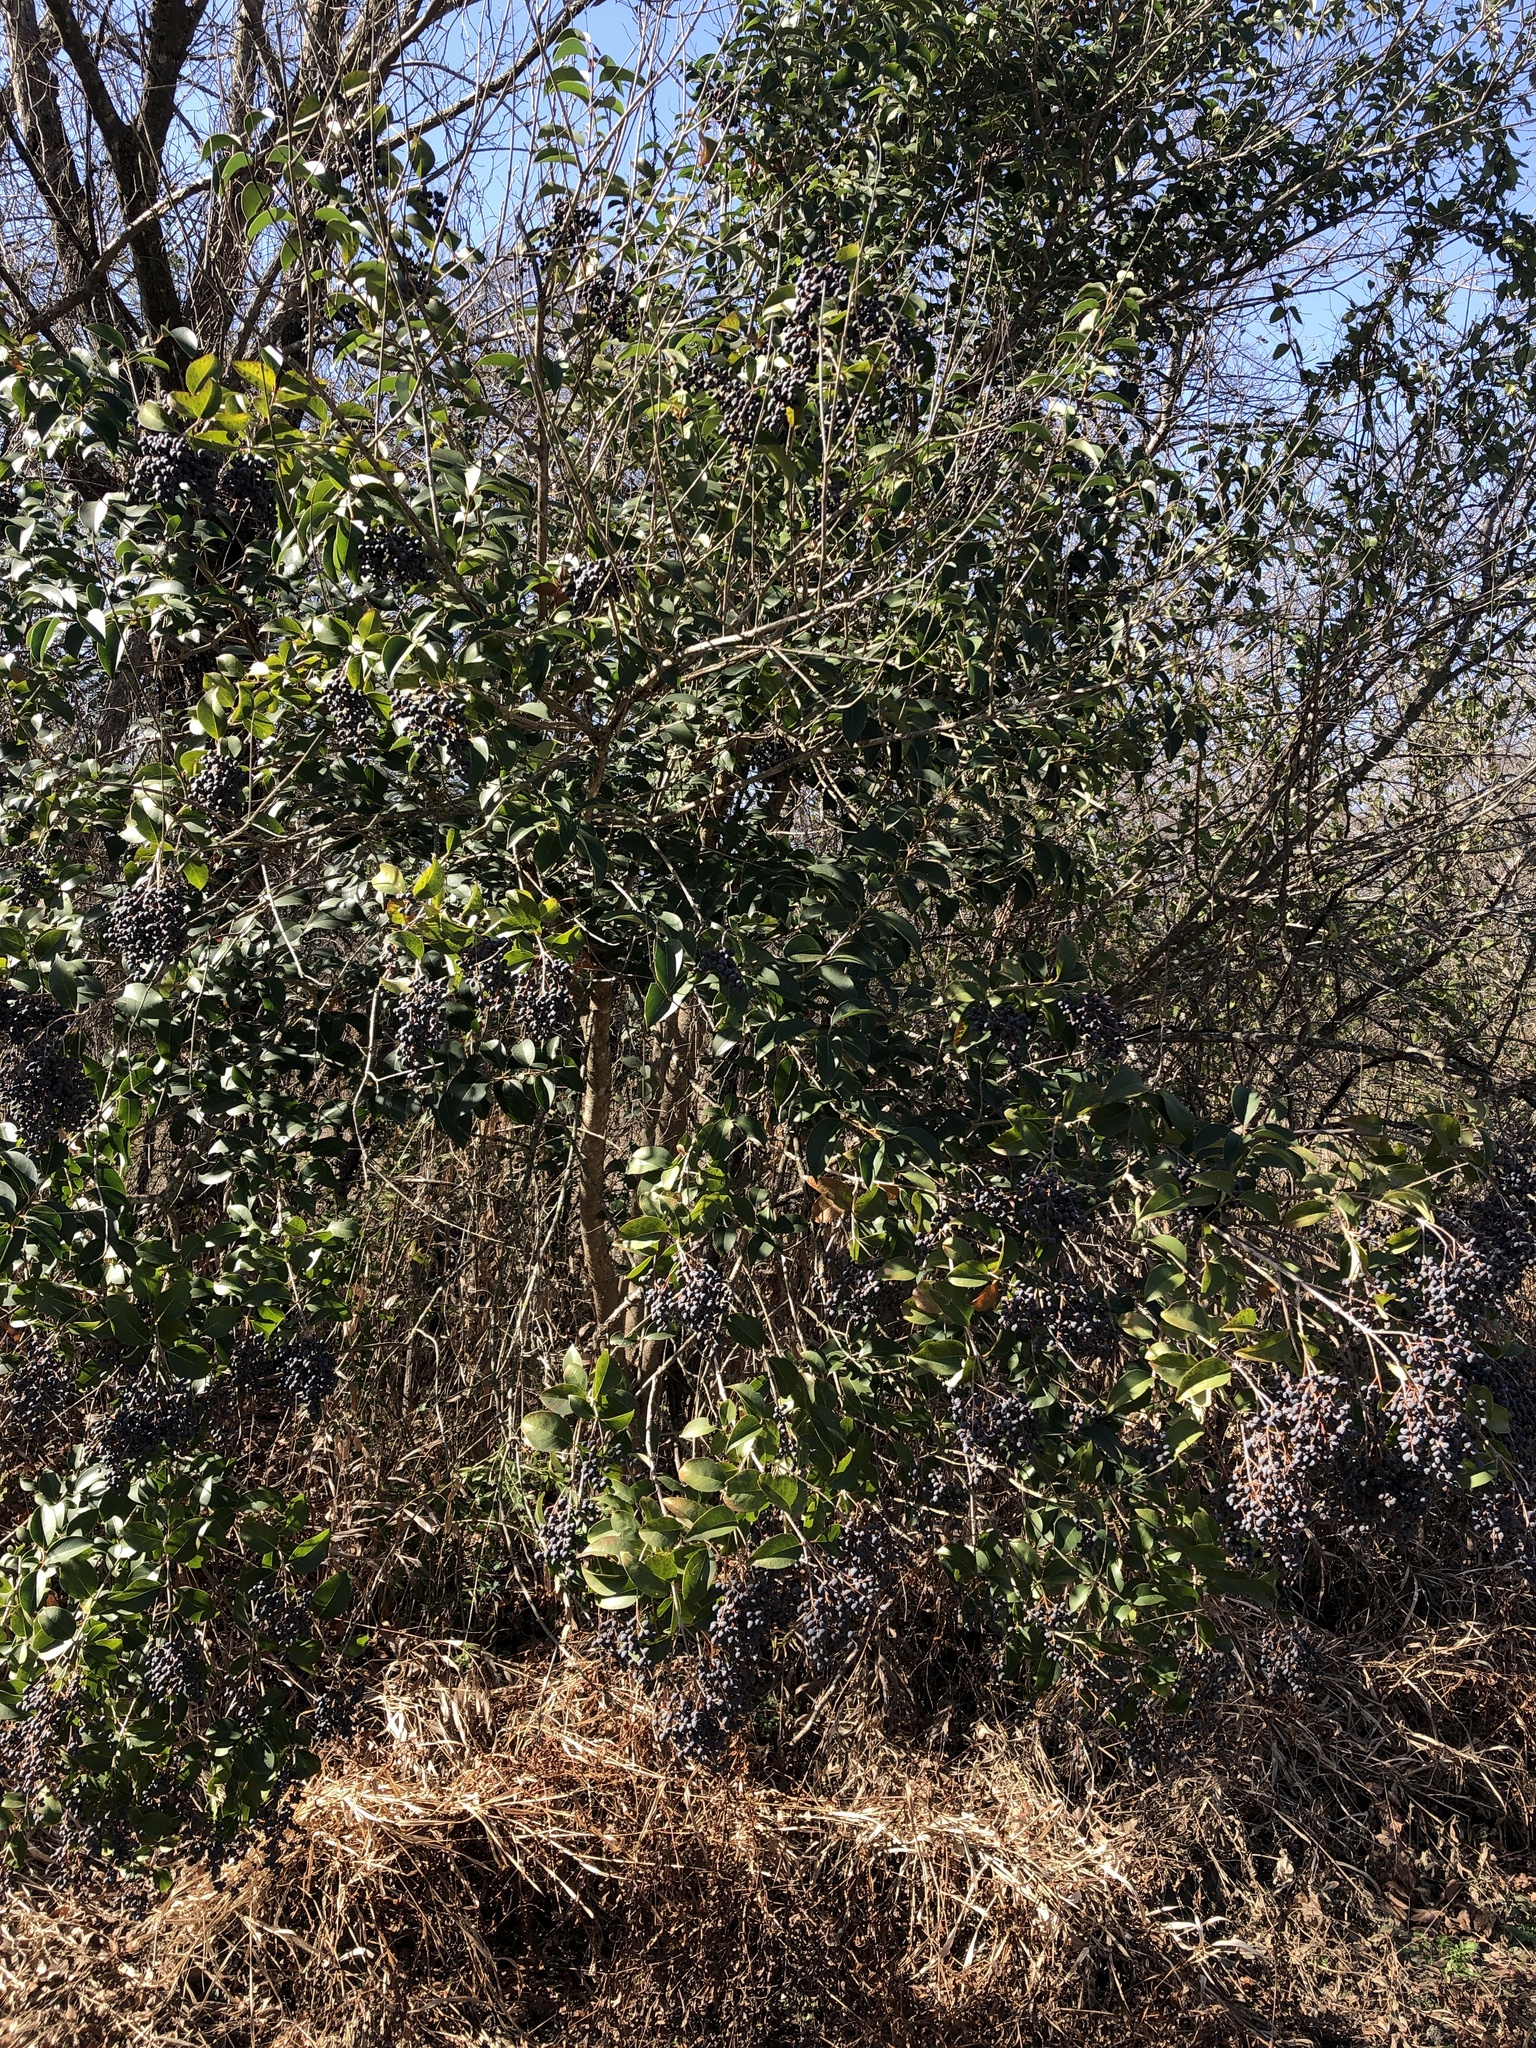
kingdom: Plantae
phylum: Tracheophyta
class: Magnoliopsida
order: Lamiales
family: Oleaceae
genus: Ligustrum
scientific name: Ligustrum lucidum
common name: Glossy privet
